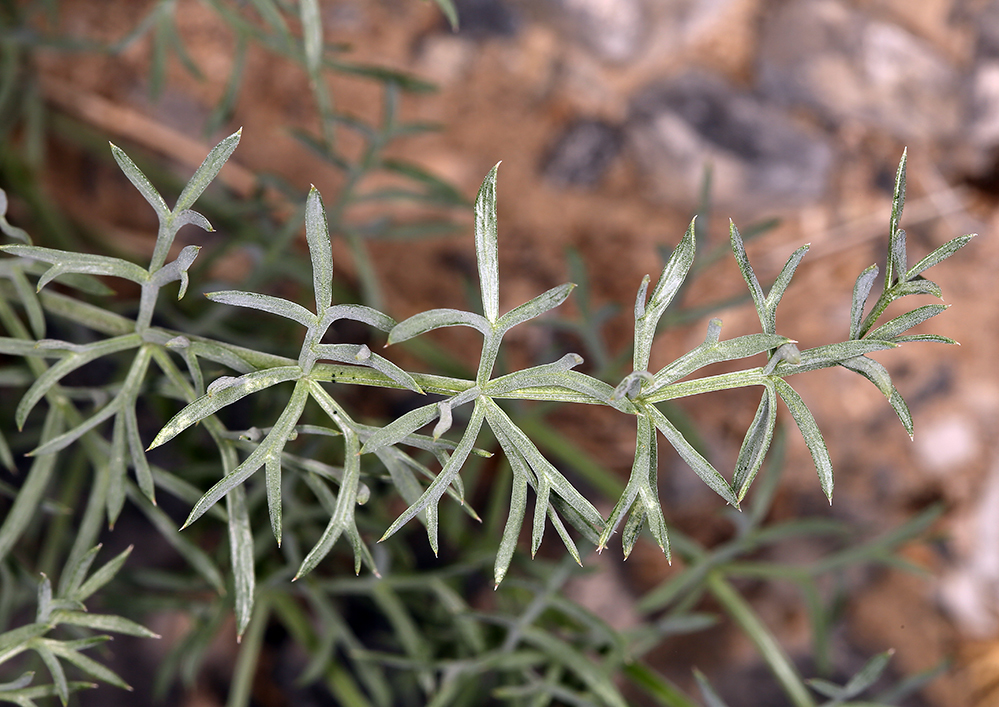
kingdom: Plantae
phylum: Tracheophyta
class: Magnoliopsida
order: Apiales
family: Apiaceae
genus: Lomatium
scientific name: Lomatium parryi
